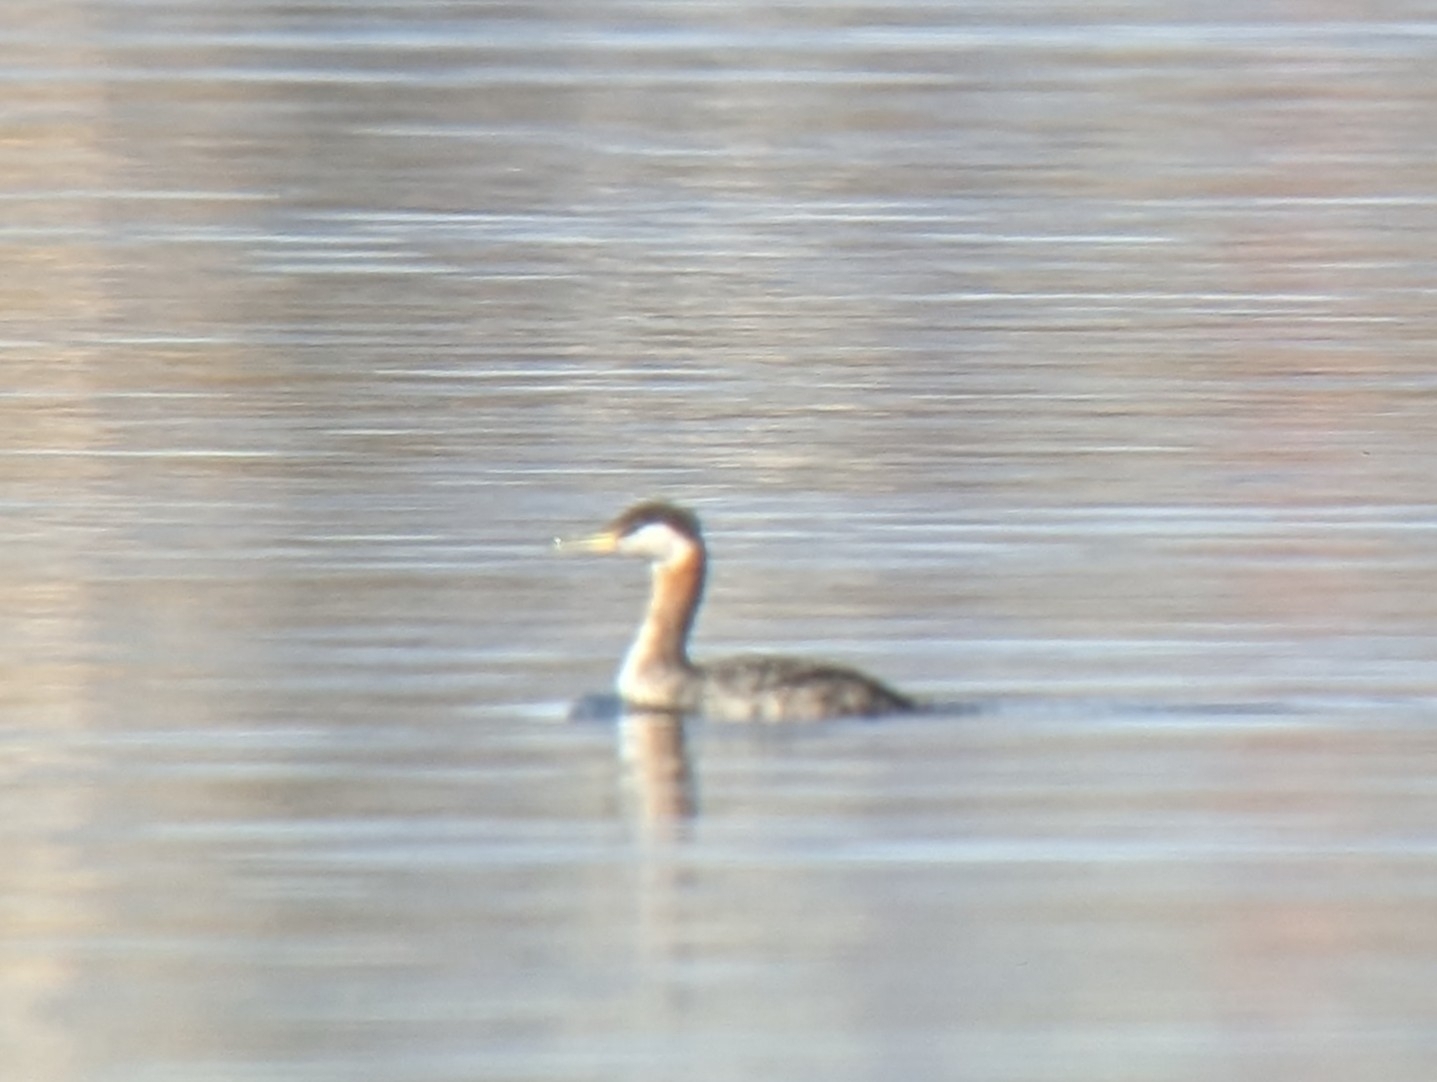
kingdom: Animalia
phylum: Chordata
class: Aves
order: Podicipediformes
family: Podicipedidae
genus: Podiceps
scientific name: Podiceps grisegena
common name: Red-necked grebe
